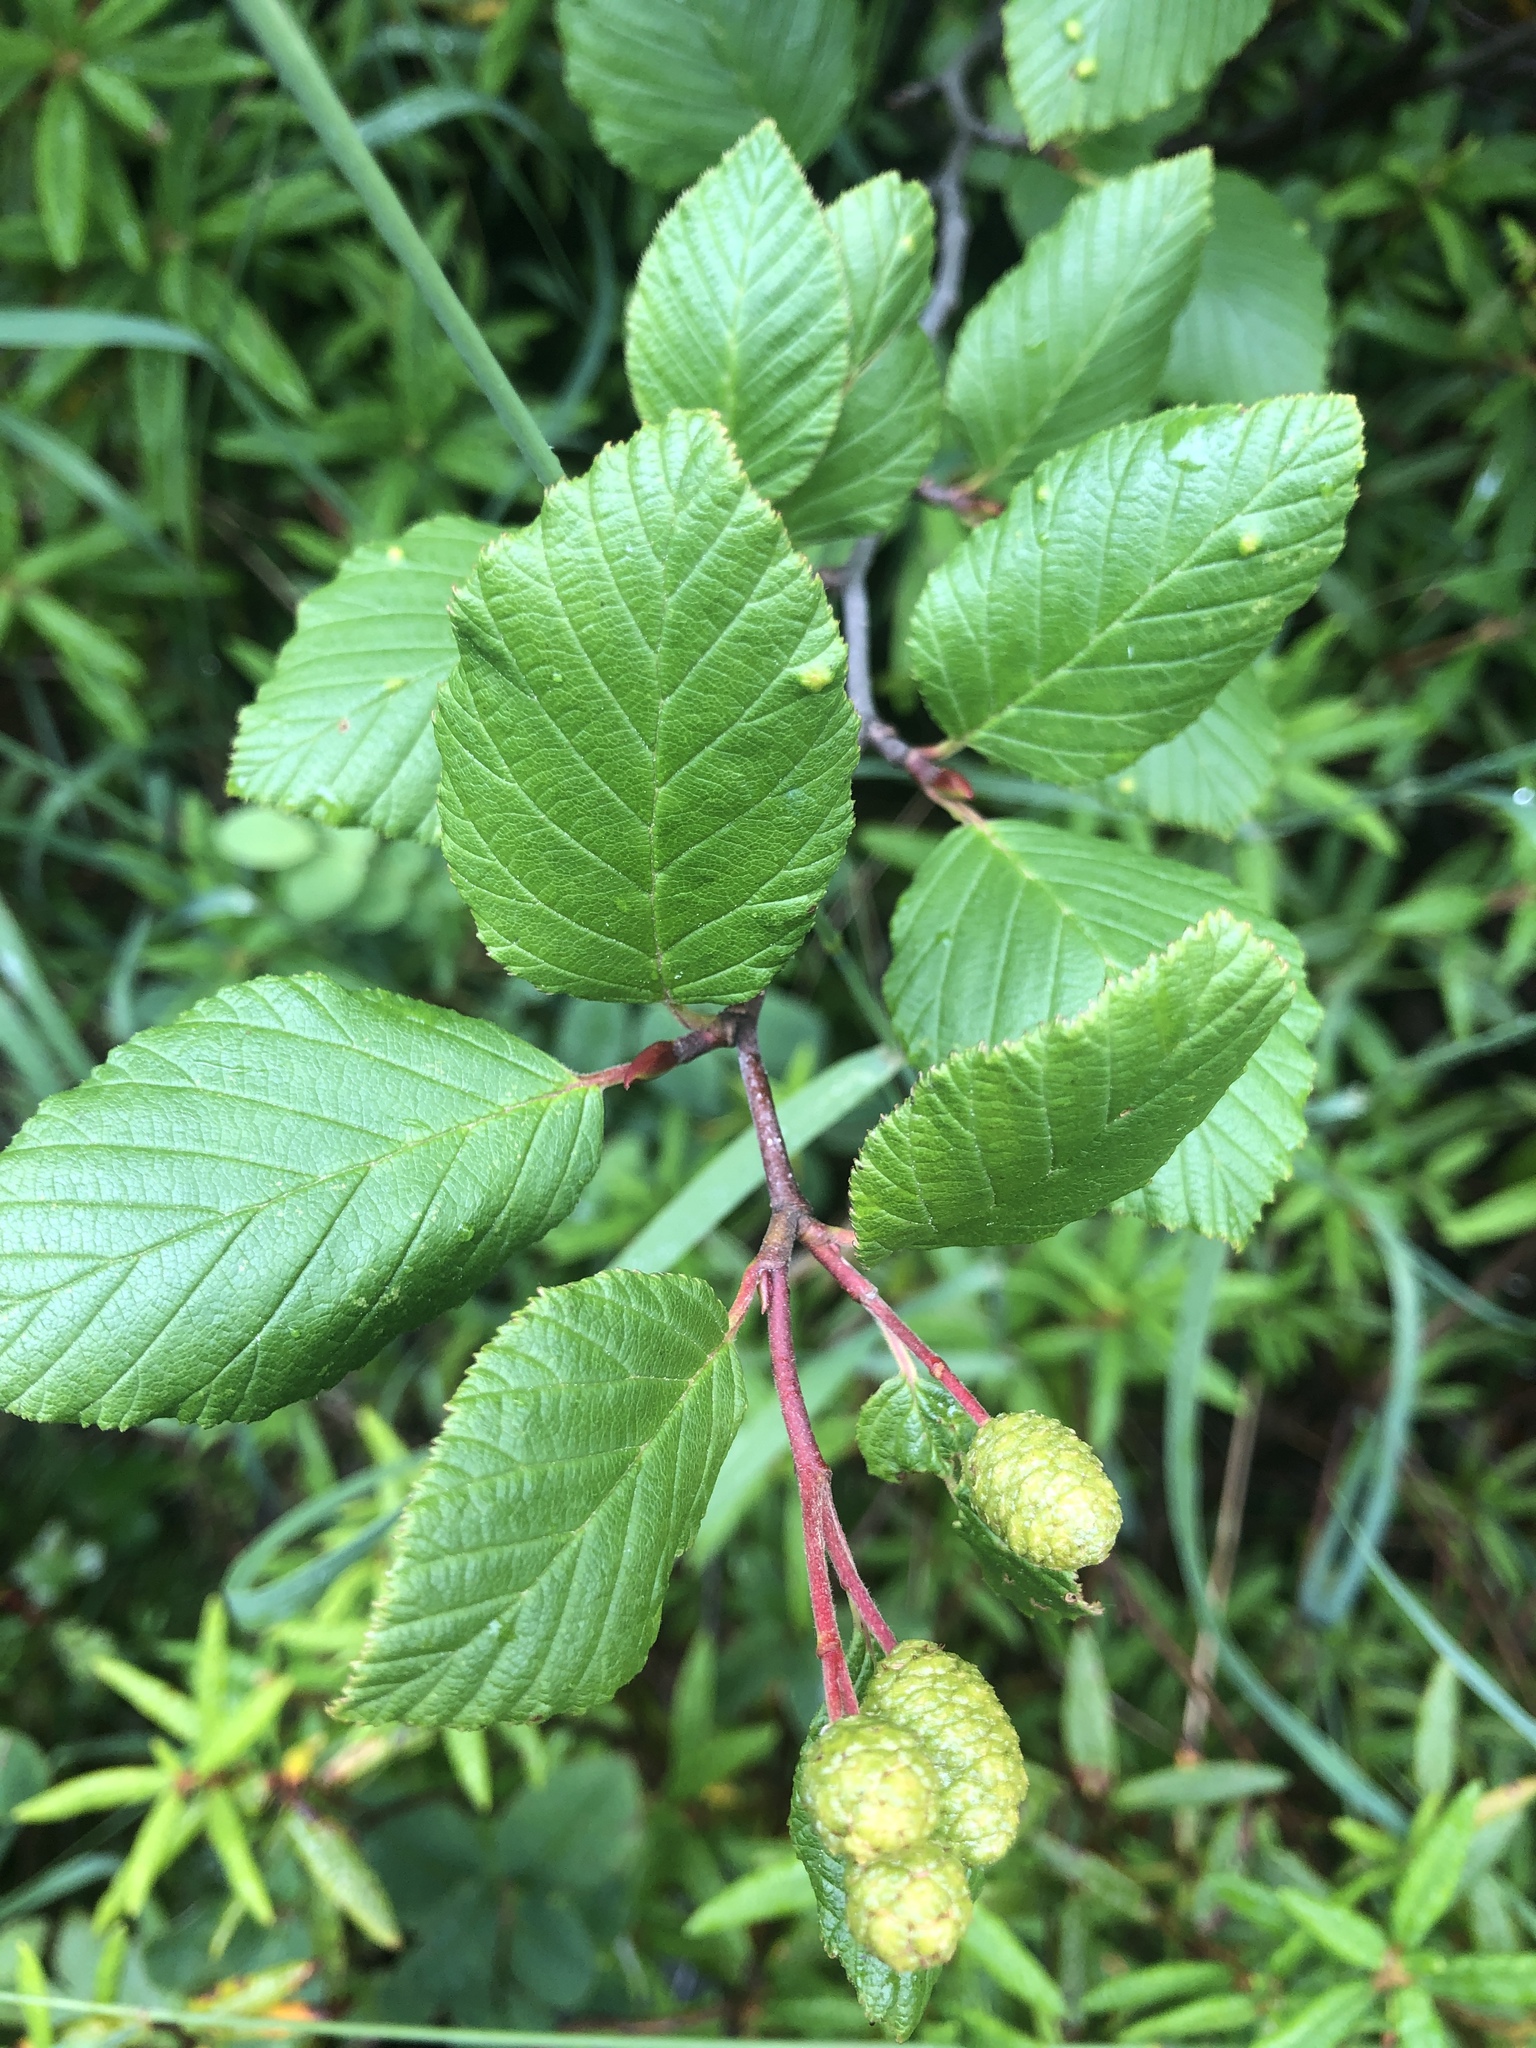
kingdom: Plantae
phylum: Tracheophyta
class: Magnoliopsida
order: Fagales
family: Betulaceae
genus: Alnus
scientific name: Alnus alnobetula
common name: Green alder
